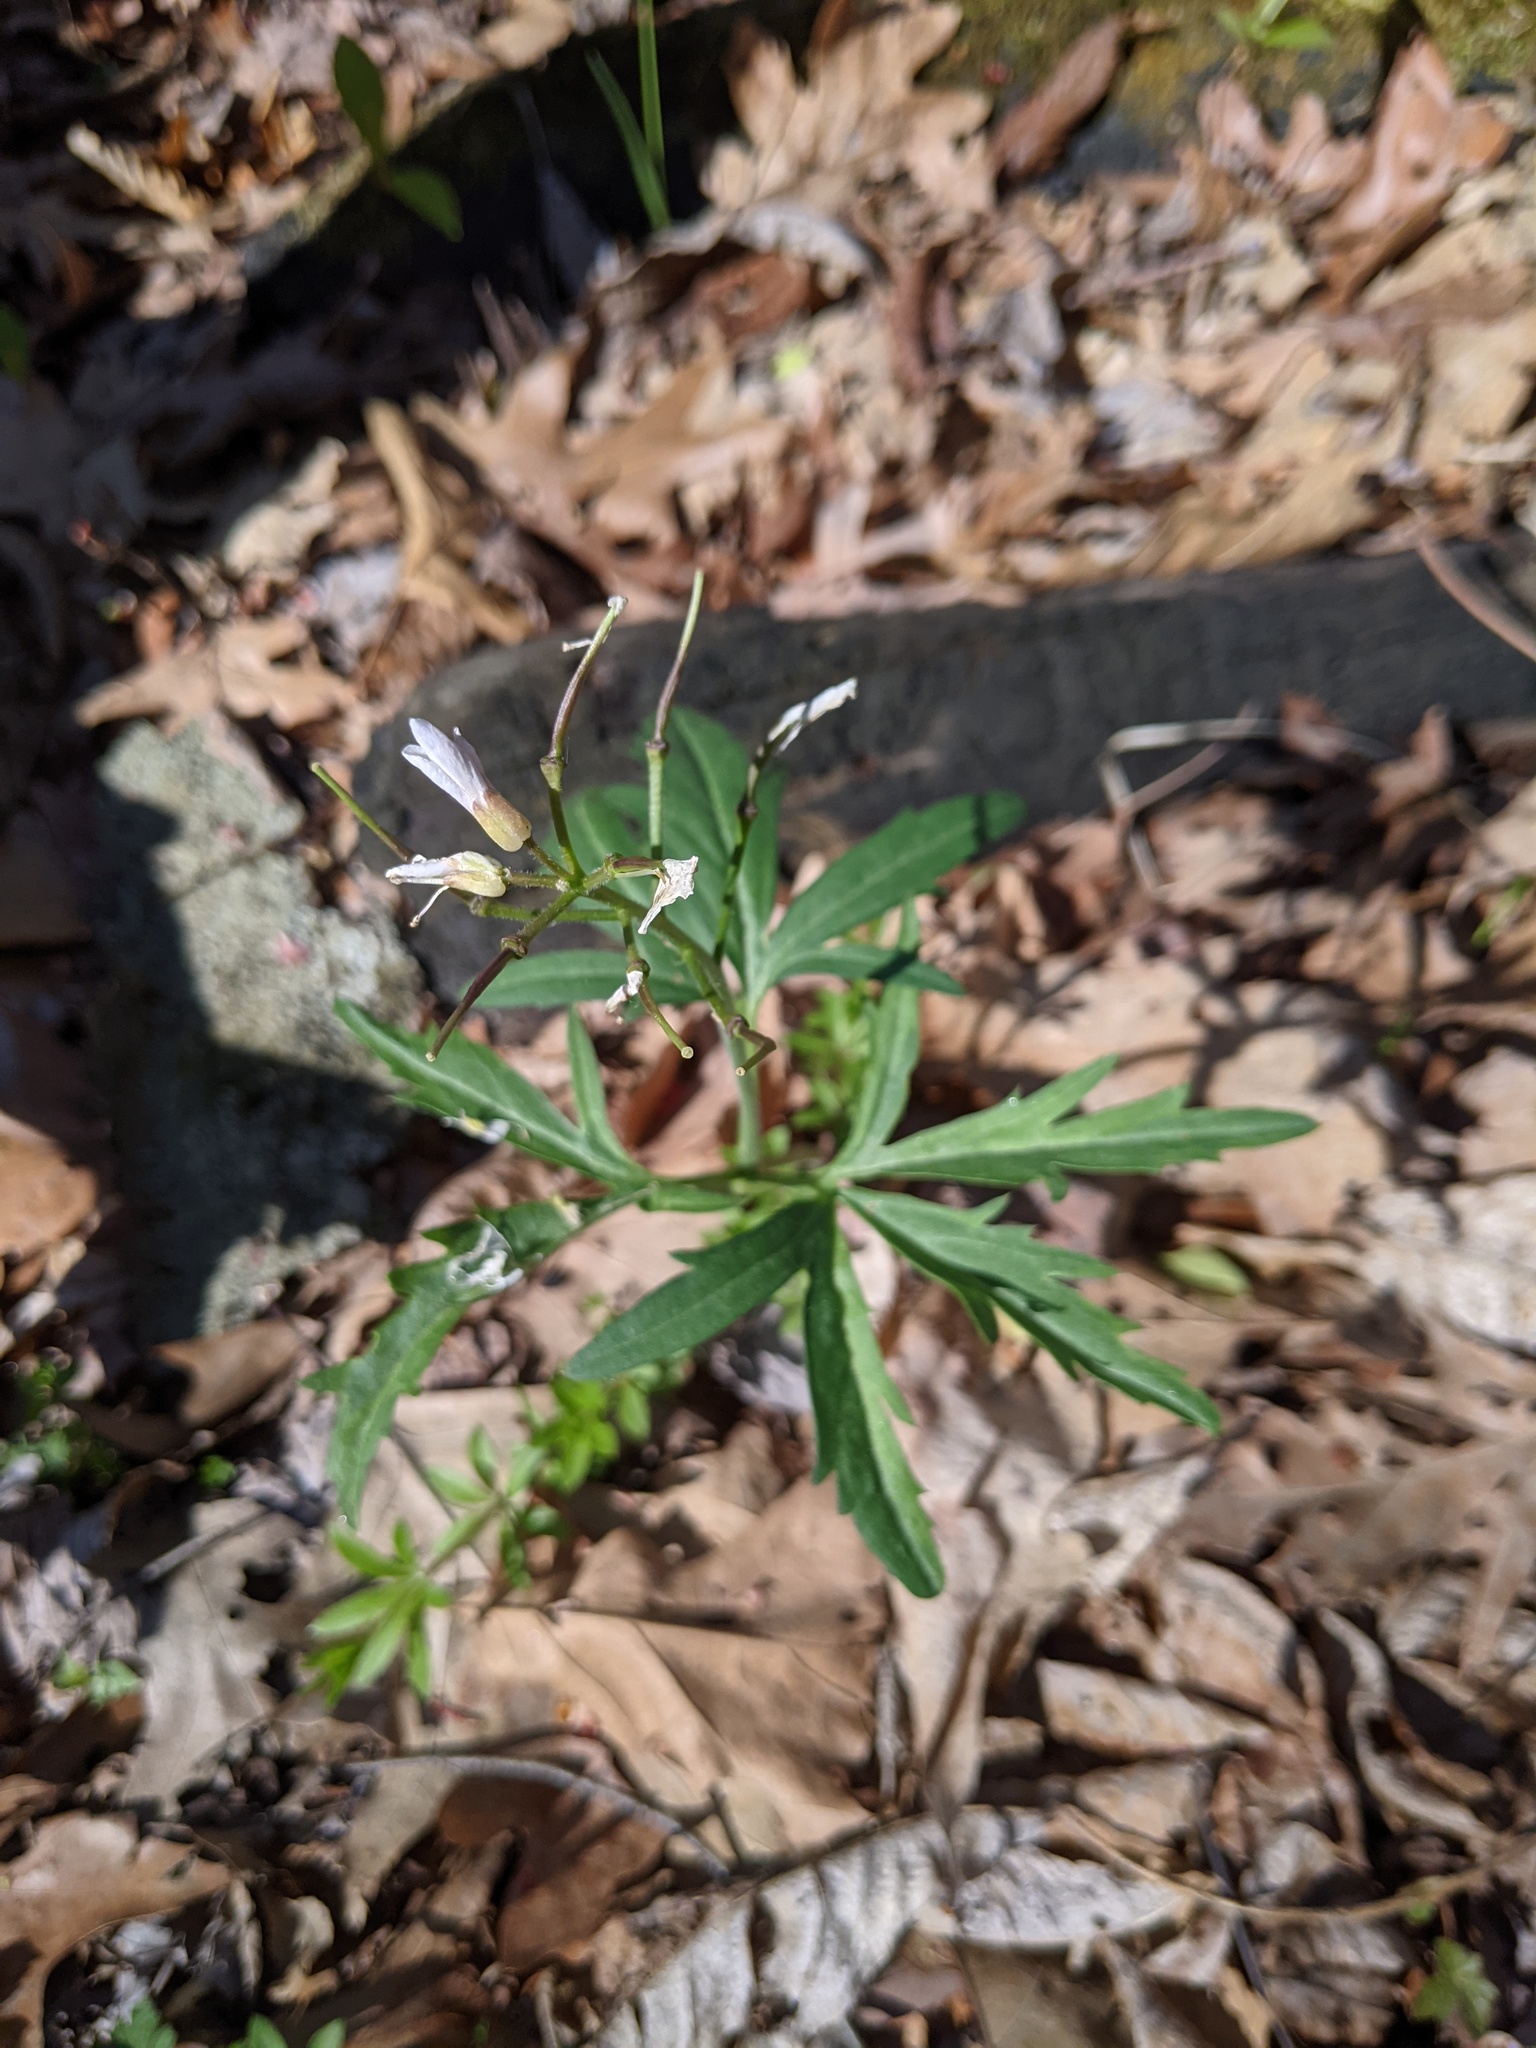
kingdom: Plantae
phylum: Tracheophyta
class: Magnoliopsida
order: Brassicales
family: Brassicaceae
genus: Cardamine
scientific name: Cardamine concatenata
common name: Cut-leaf toothcup
